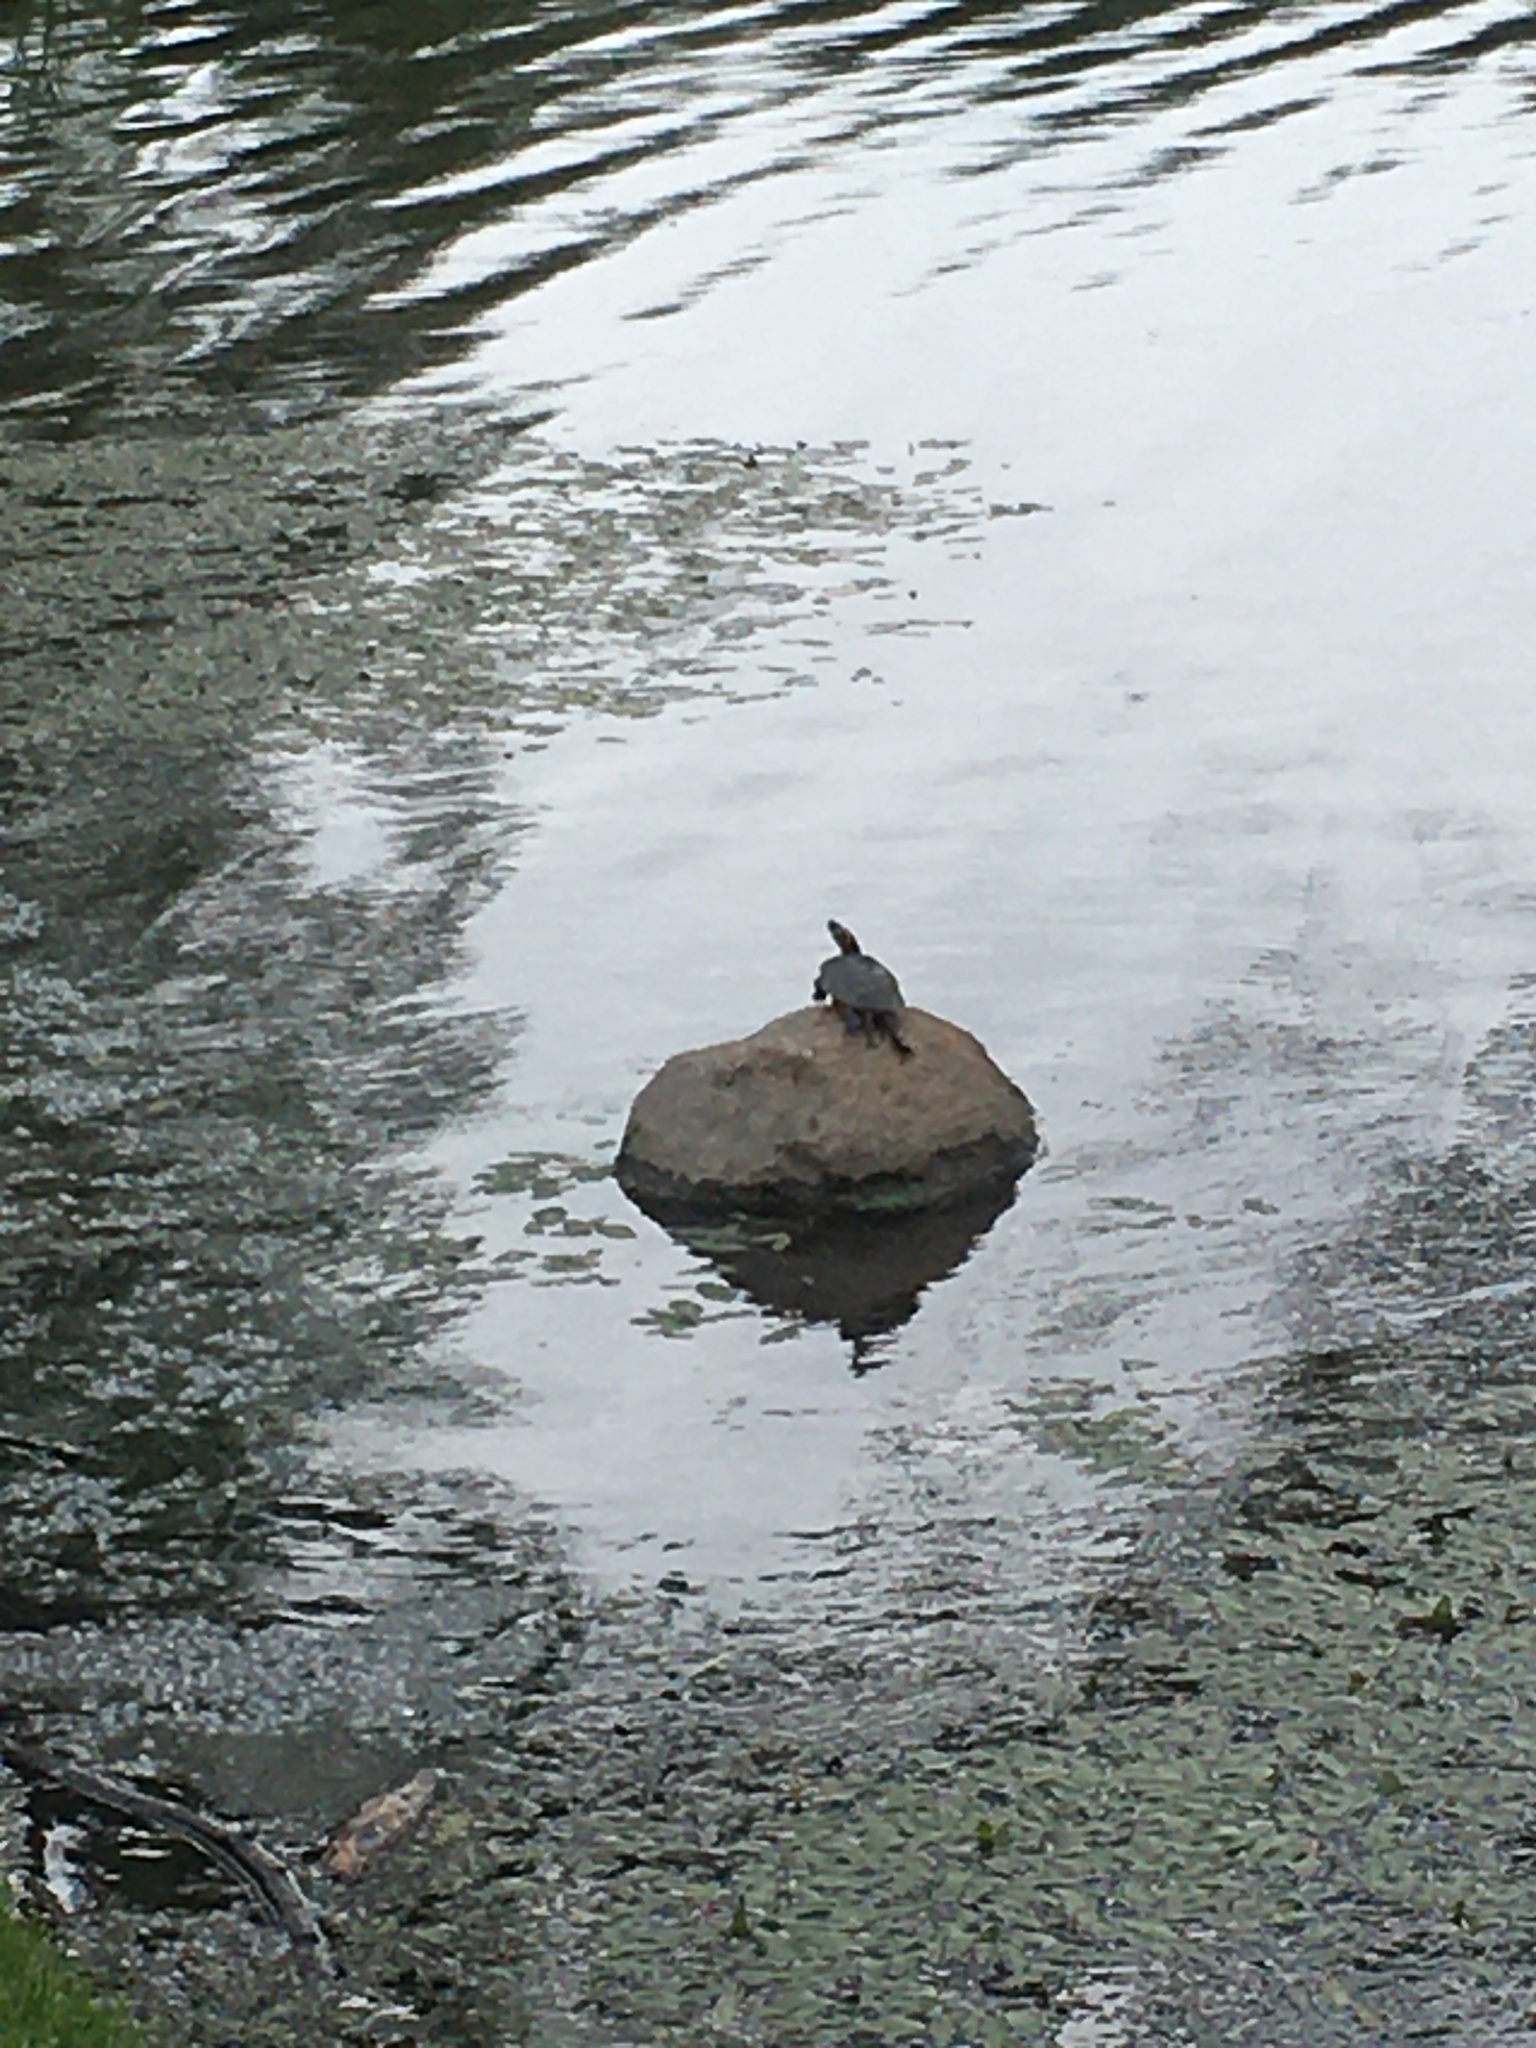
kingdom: Animalia
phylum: Chordata
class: Testudines
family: Emydidae
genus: Chrysemys
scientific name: Chrysemys picta
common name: Painted turtle
